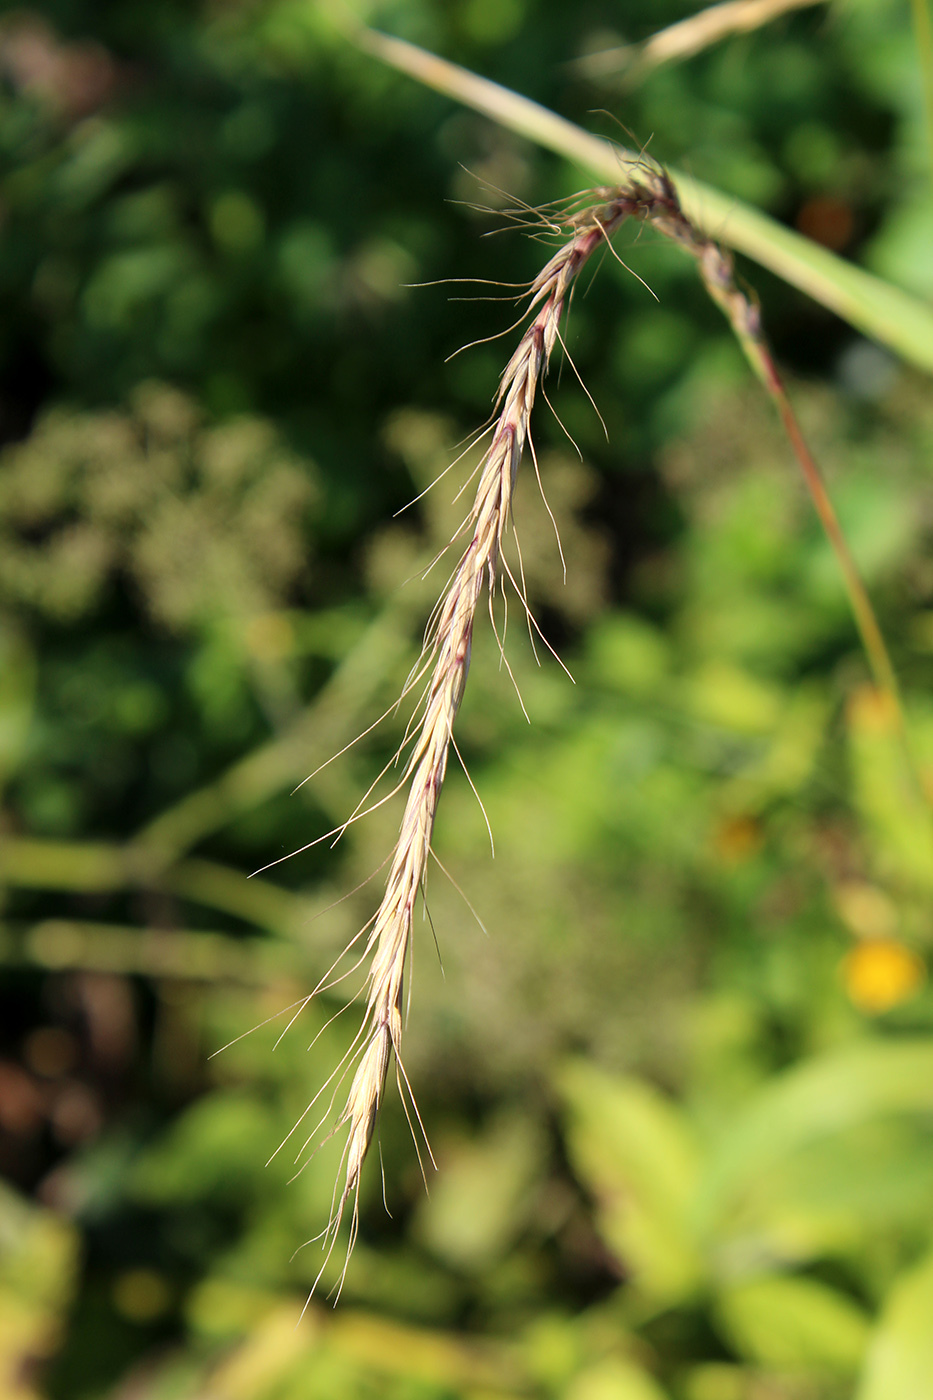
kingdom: Plantae
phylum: Tracheophyta
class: Liliopsida
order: Poales
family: Poaceae
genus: Elymus
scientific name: Elymus caninus
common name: Bearded couch
